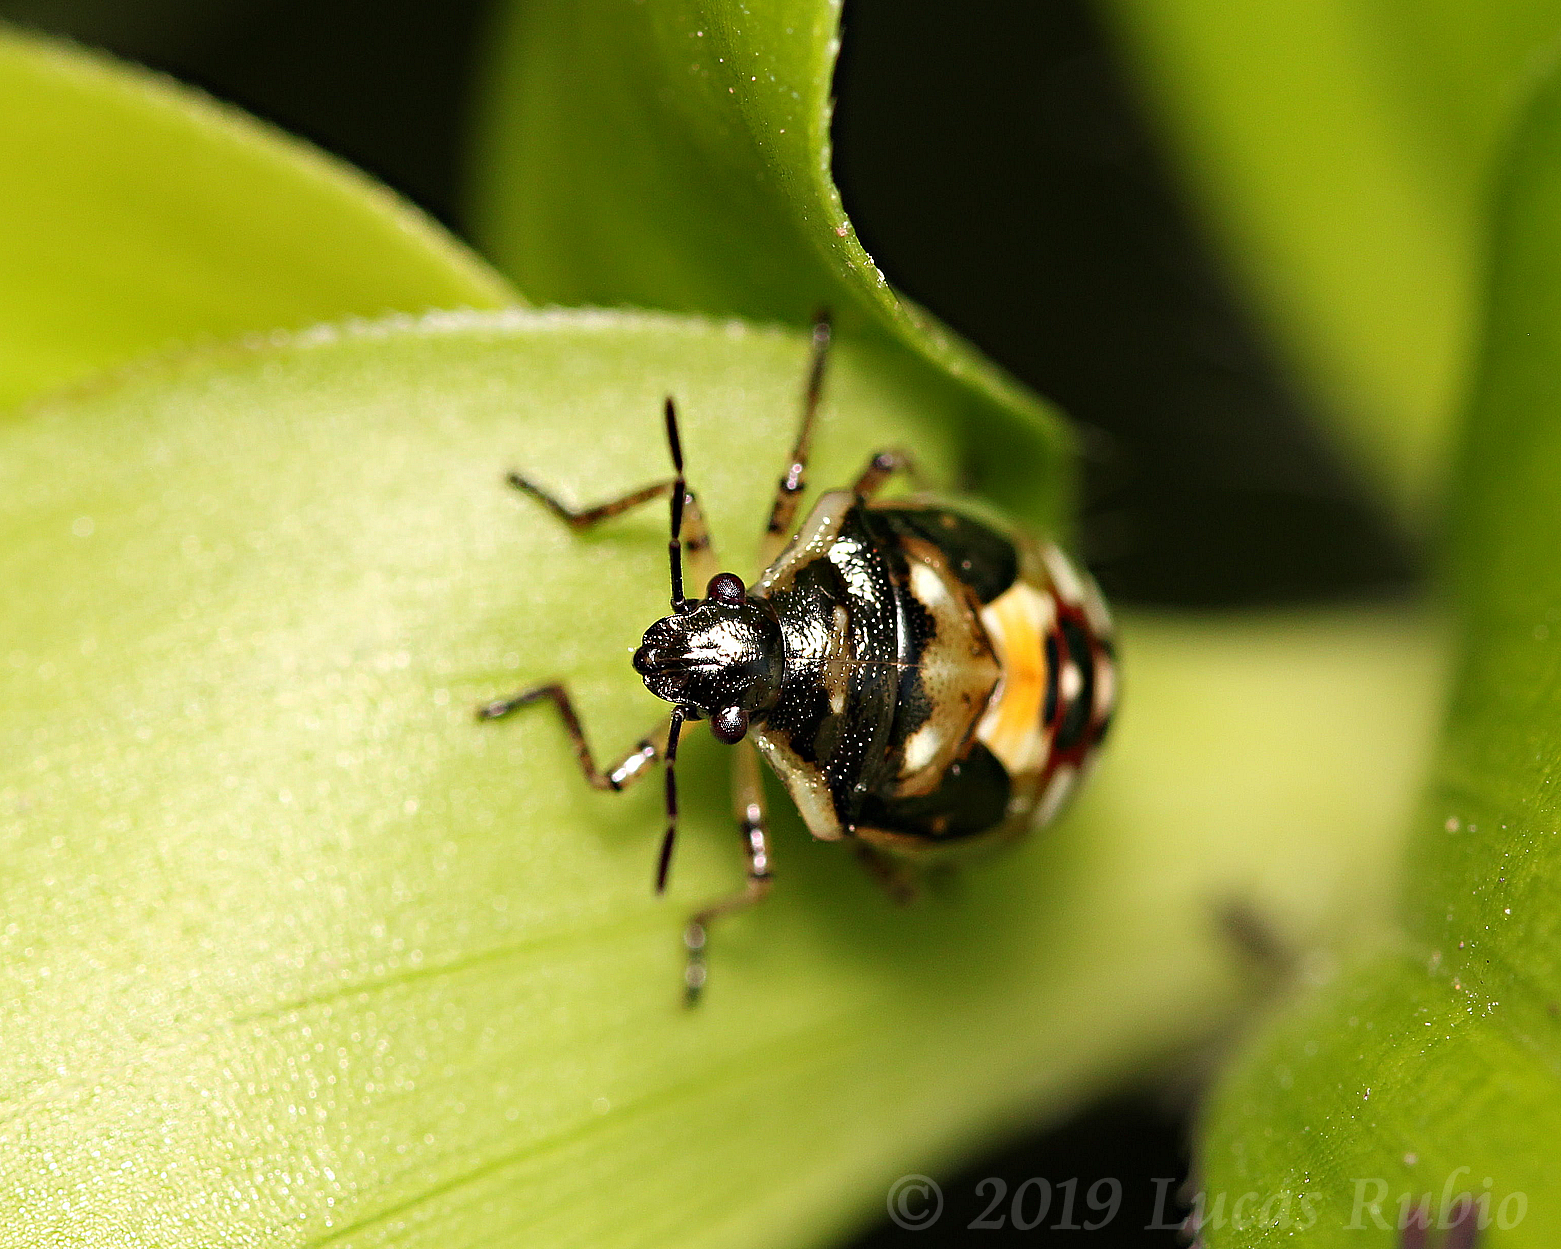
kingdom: Animalia
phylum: Arthropoda
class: Insecta
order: Hemiptera
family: Pentatomidae
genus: Mormidea
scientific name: Mormidea v-luteum
